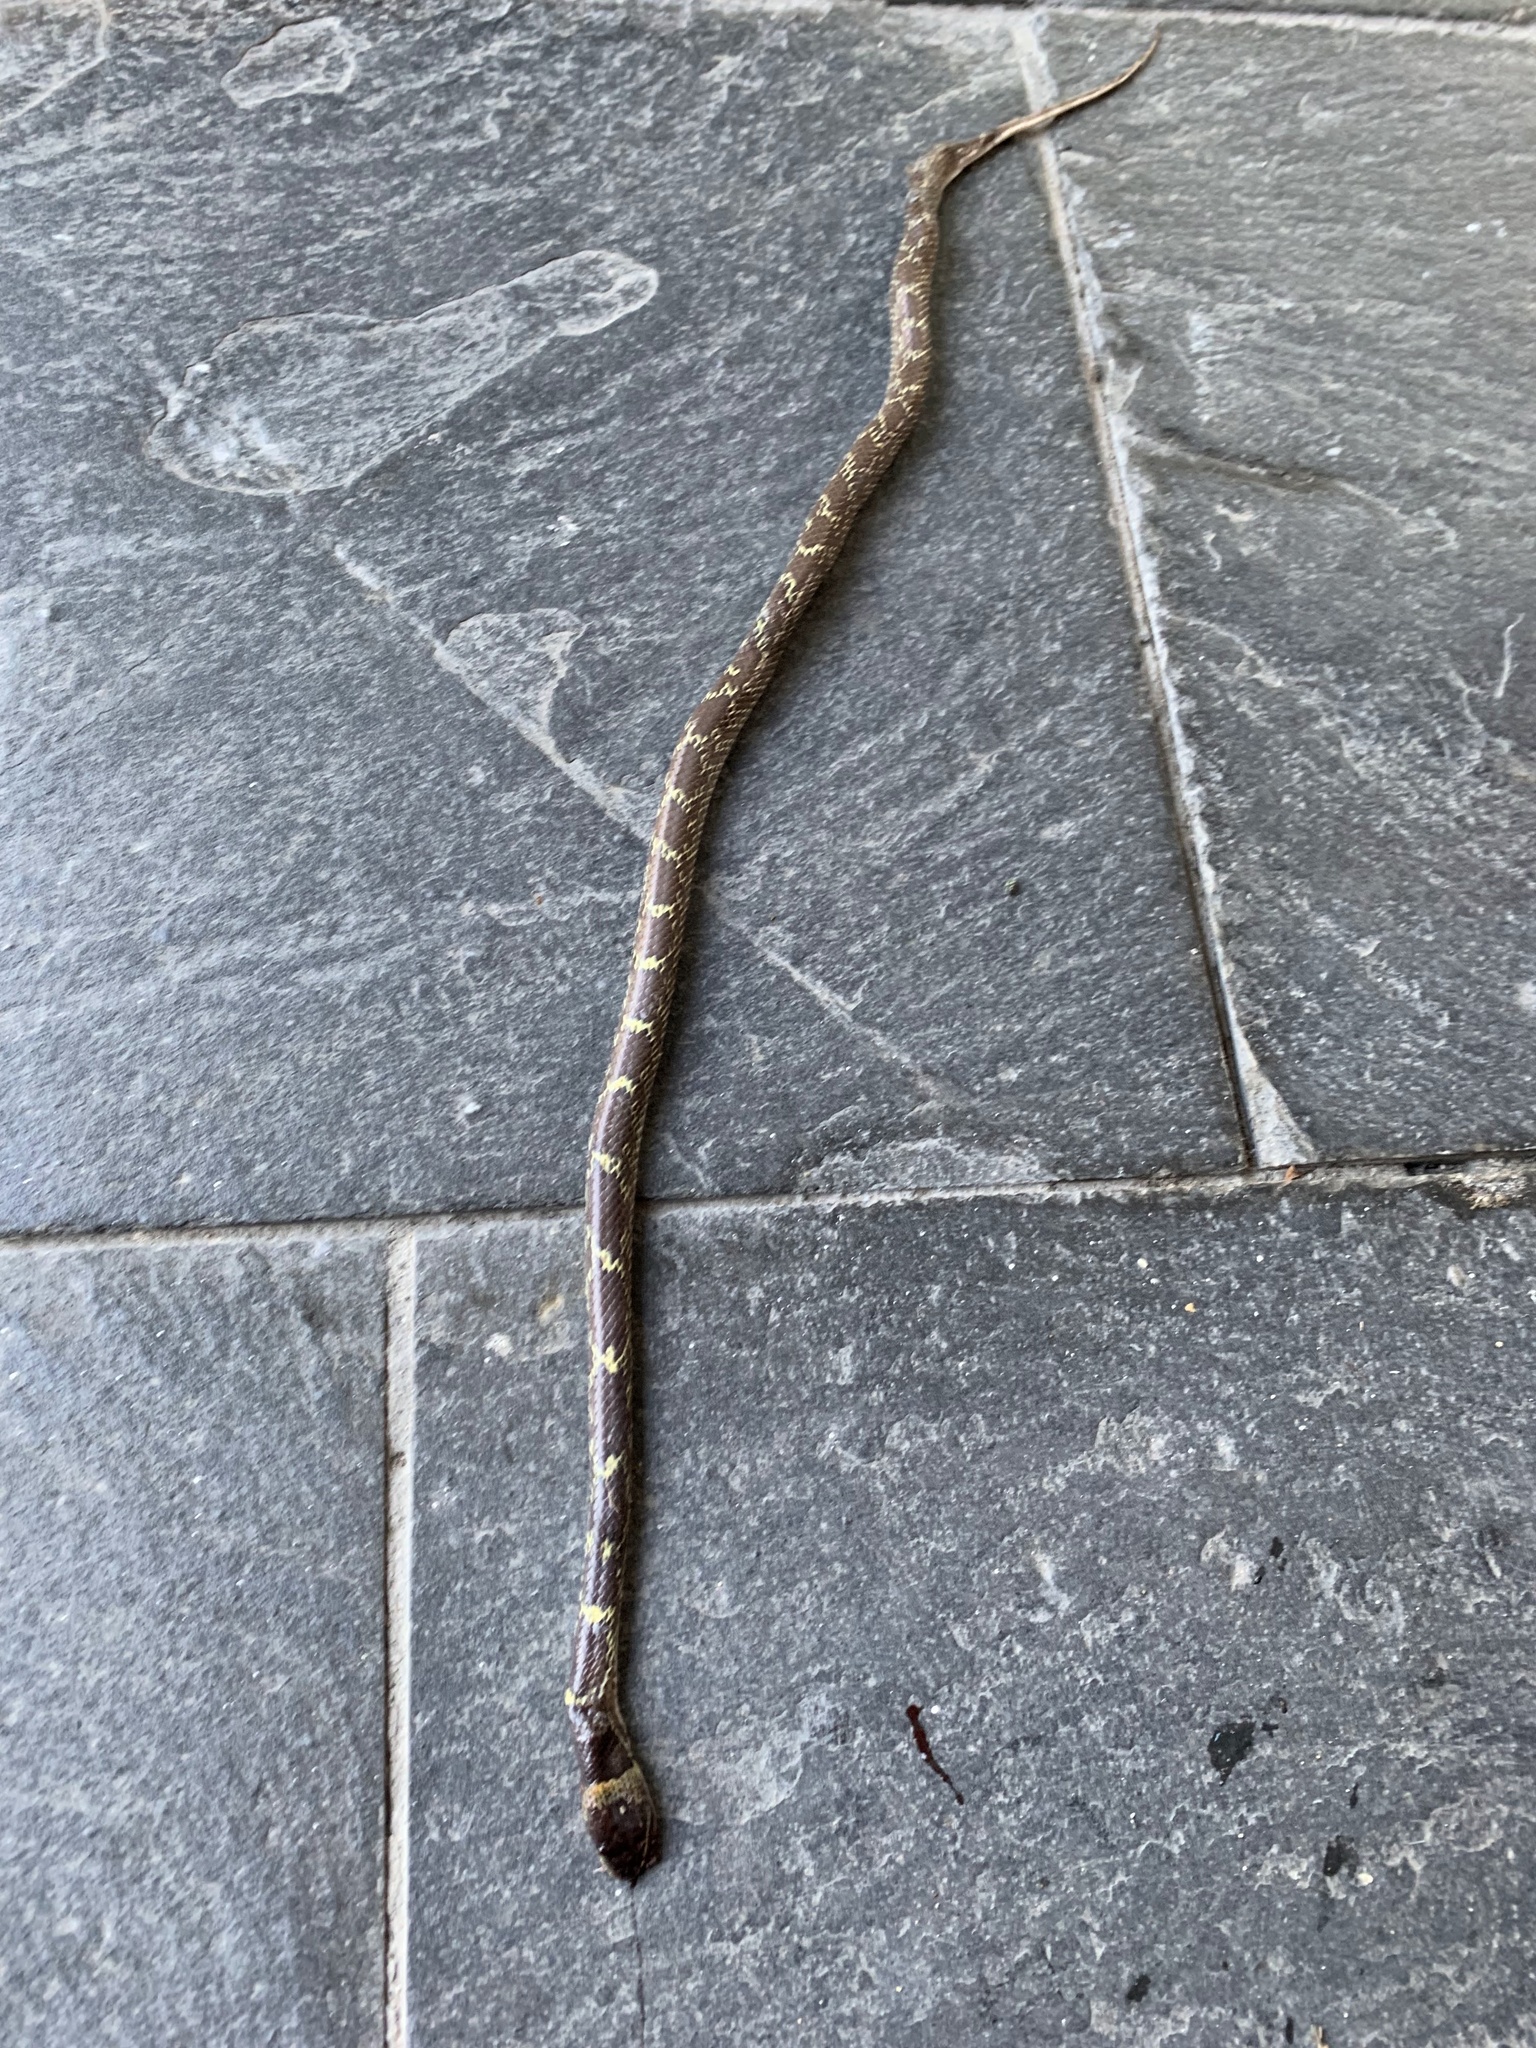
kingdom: Animalia
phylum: Chordata
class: Squamata
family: Colubridae
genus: Lycodon
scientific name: Lycodon aulicus
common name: Common wolf snake
